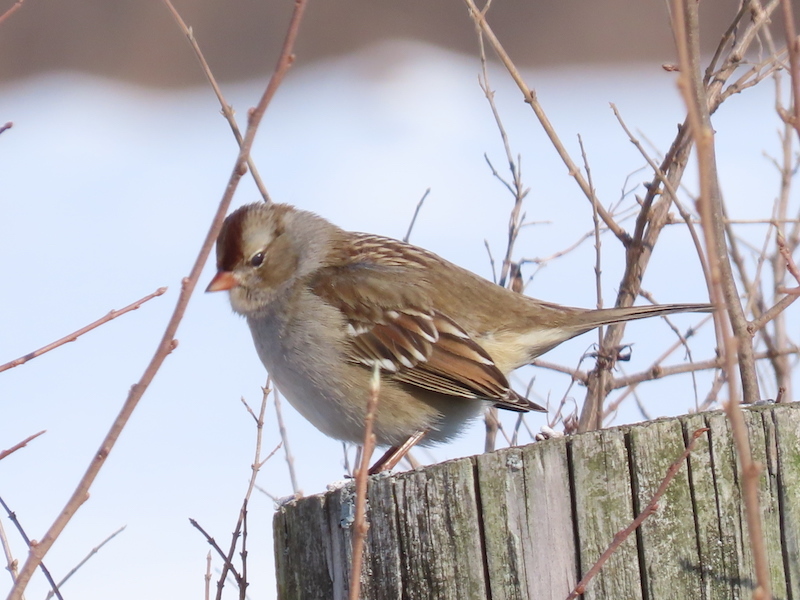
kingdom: Animalia
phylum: Chordata
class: Aves
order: Passeriformes
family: Passerellidae
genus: Zonotrichia
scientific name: Zonotrichia leucophrys
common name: White-crowned sparrow
